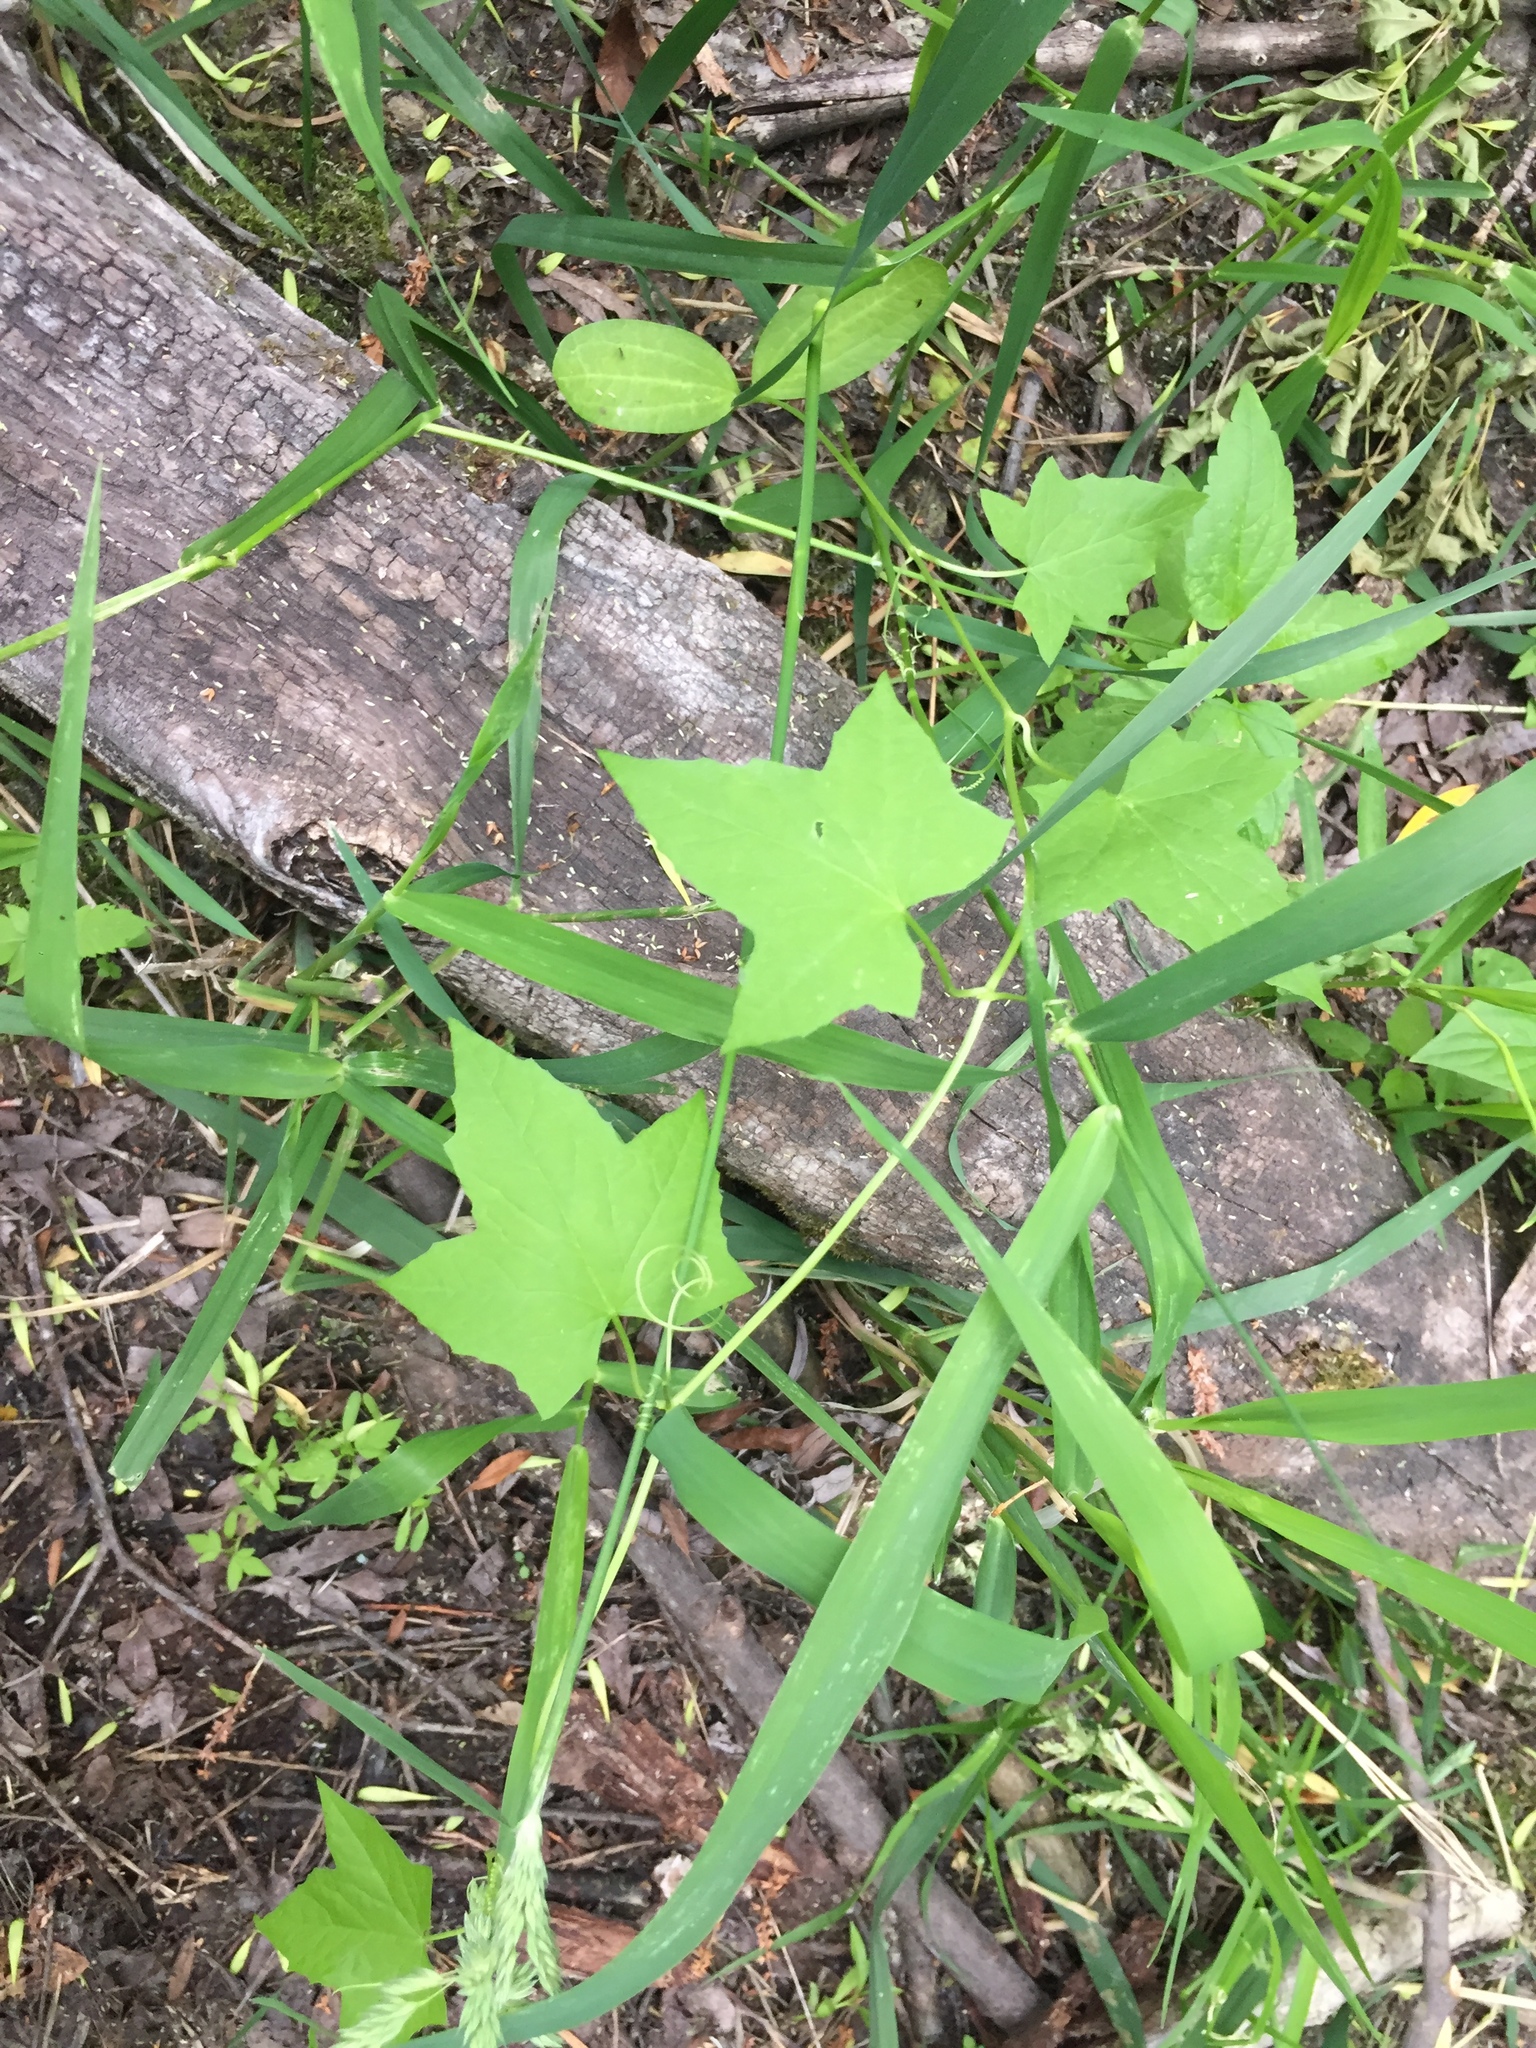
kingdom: Plantae
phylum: Tracheophyta
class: Magnoliopsida
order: Cucurbitales
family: Cucurbitaceae
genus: Echinocystis
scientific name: Echinocystis lobata
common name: Wild cucumber
